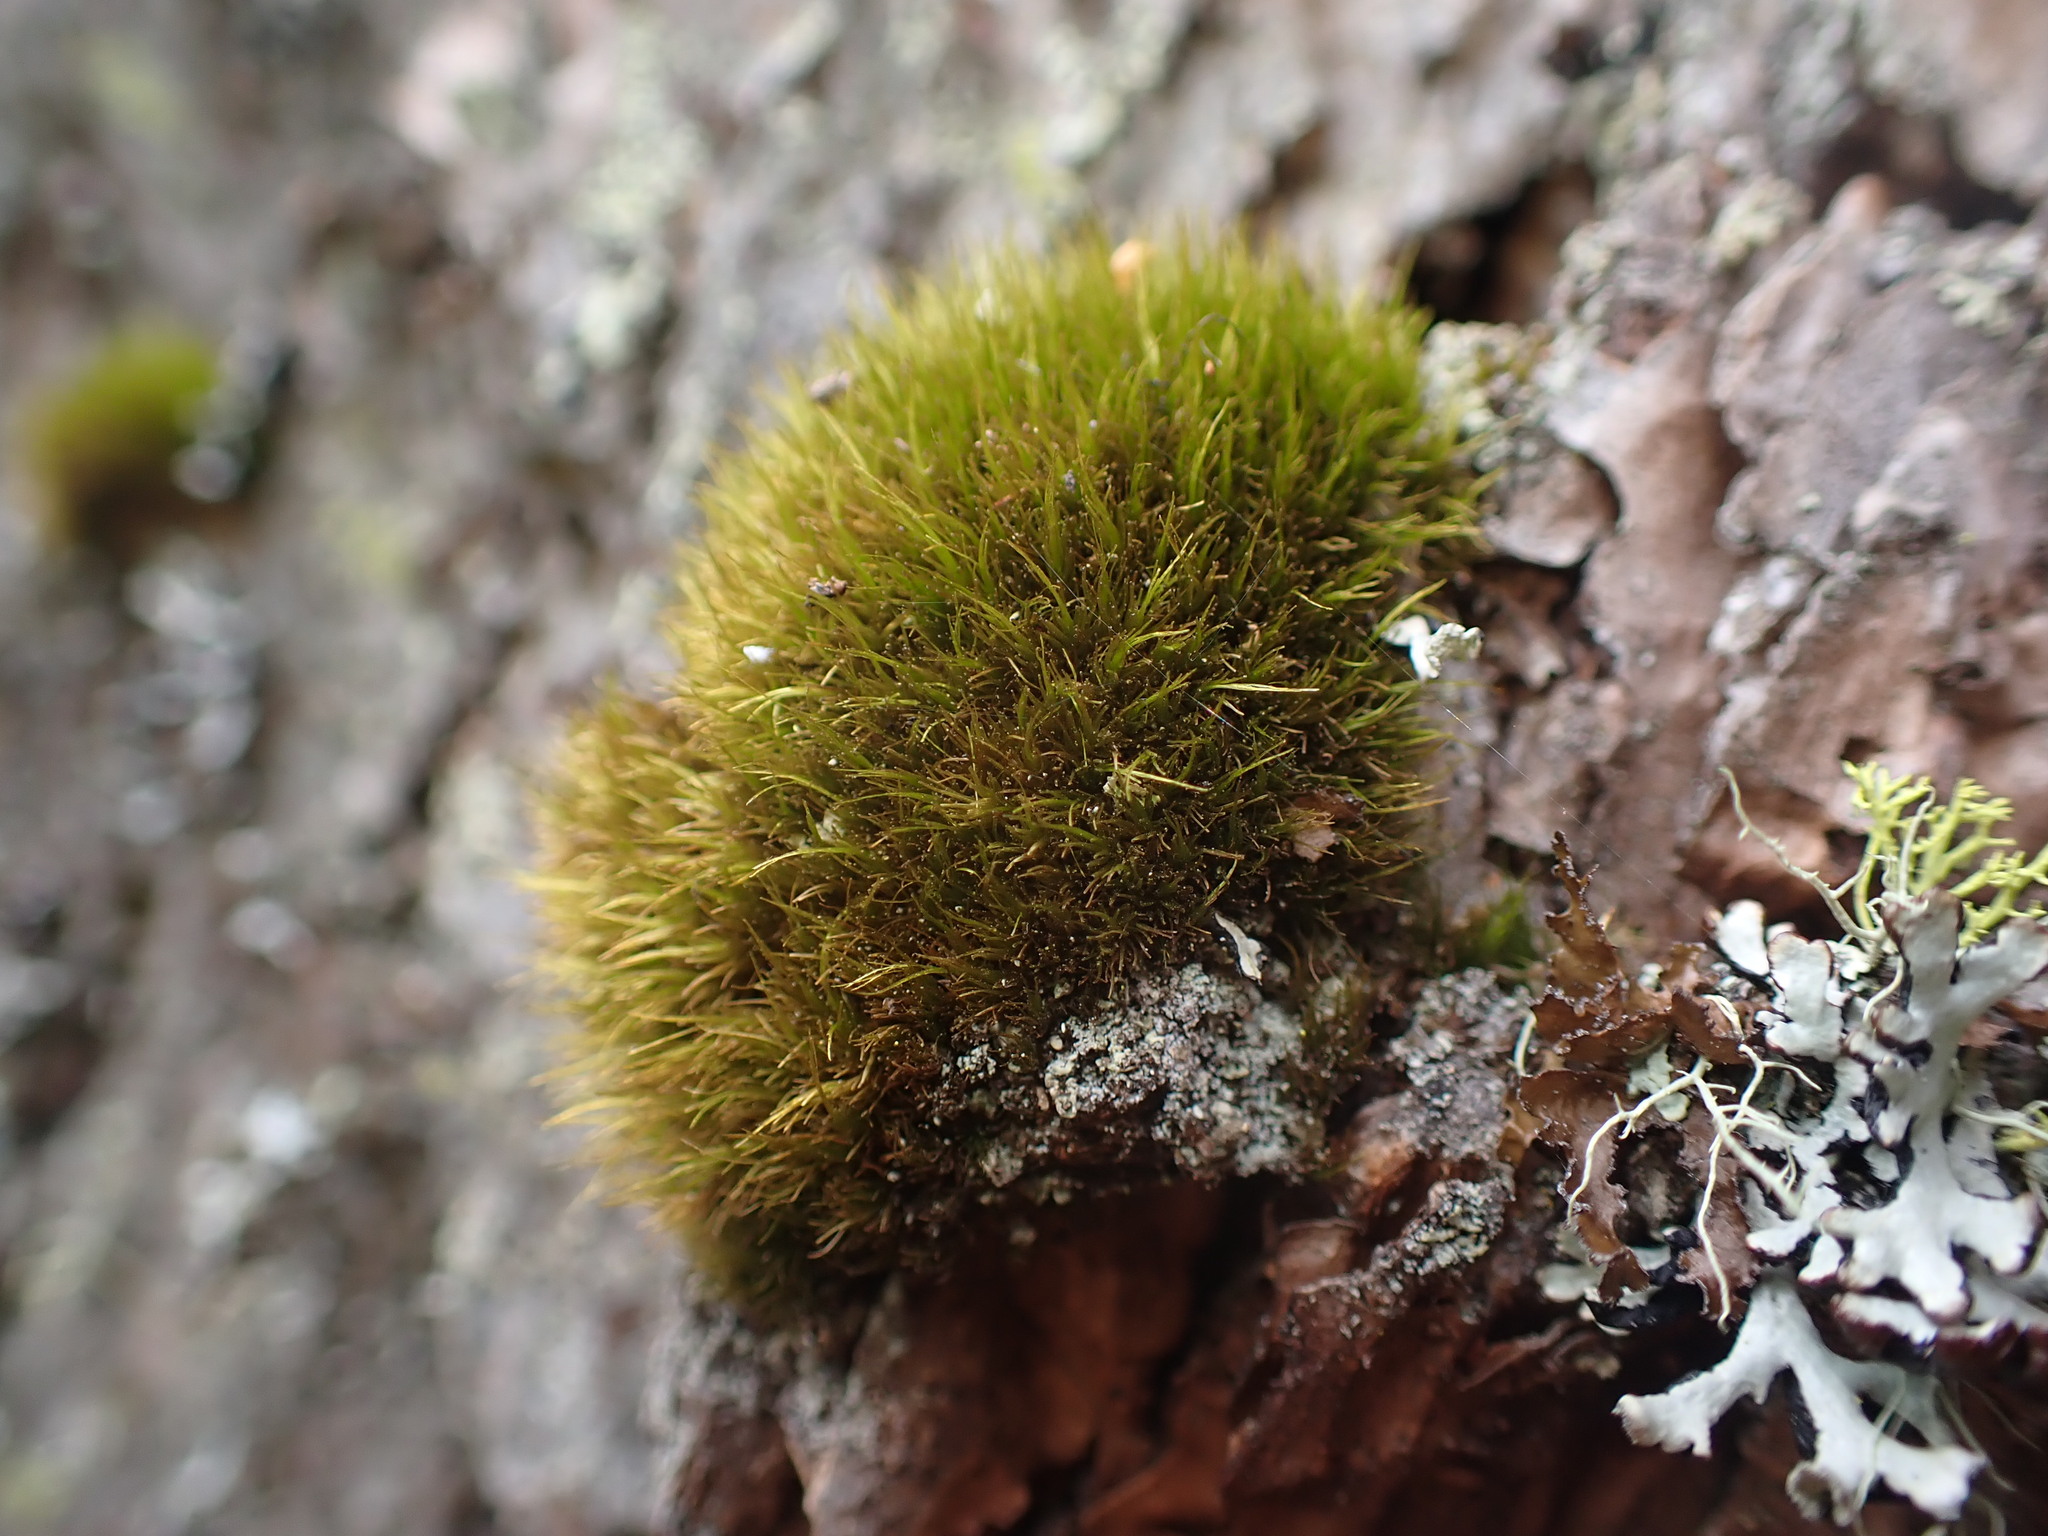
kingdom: Plantae
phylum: Bryophyta
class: Bryopsida
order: Dicranales
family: Dicranaceae
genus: Orthodicranum
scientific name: Orthodicranum tauricum
